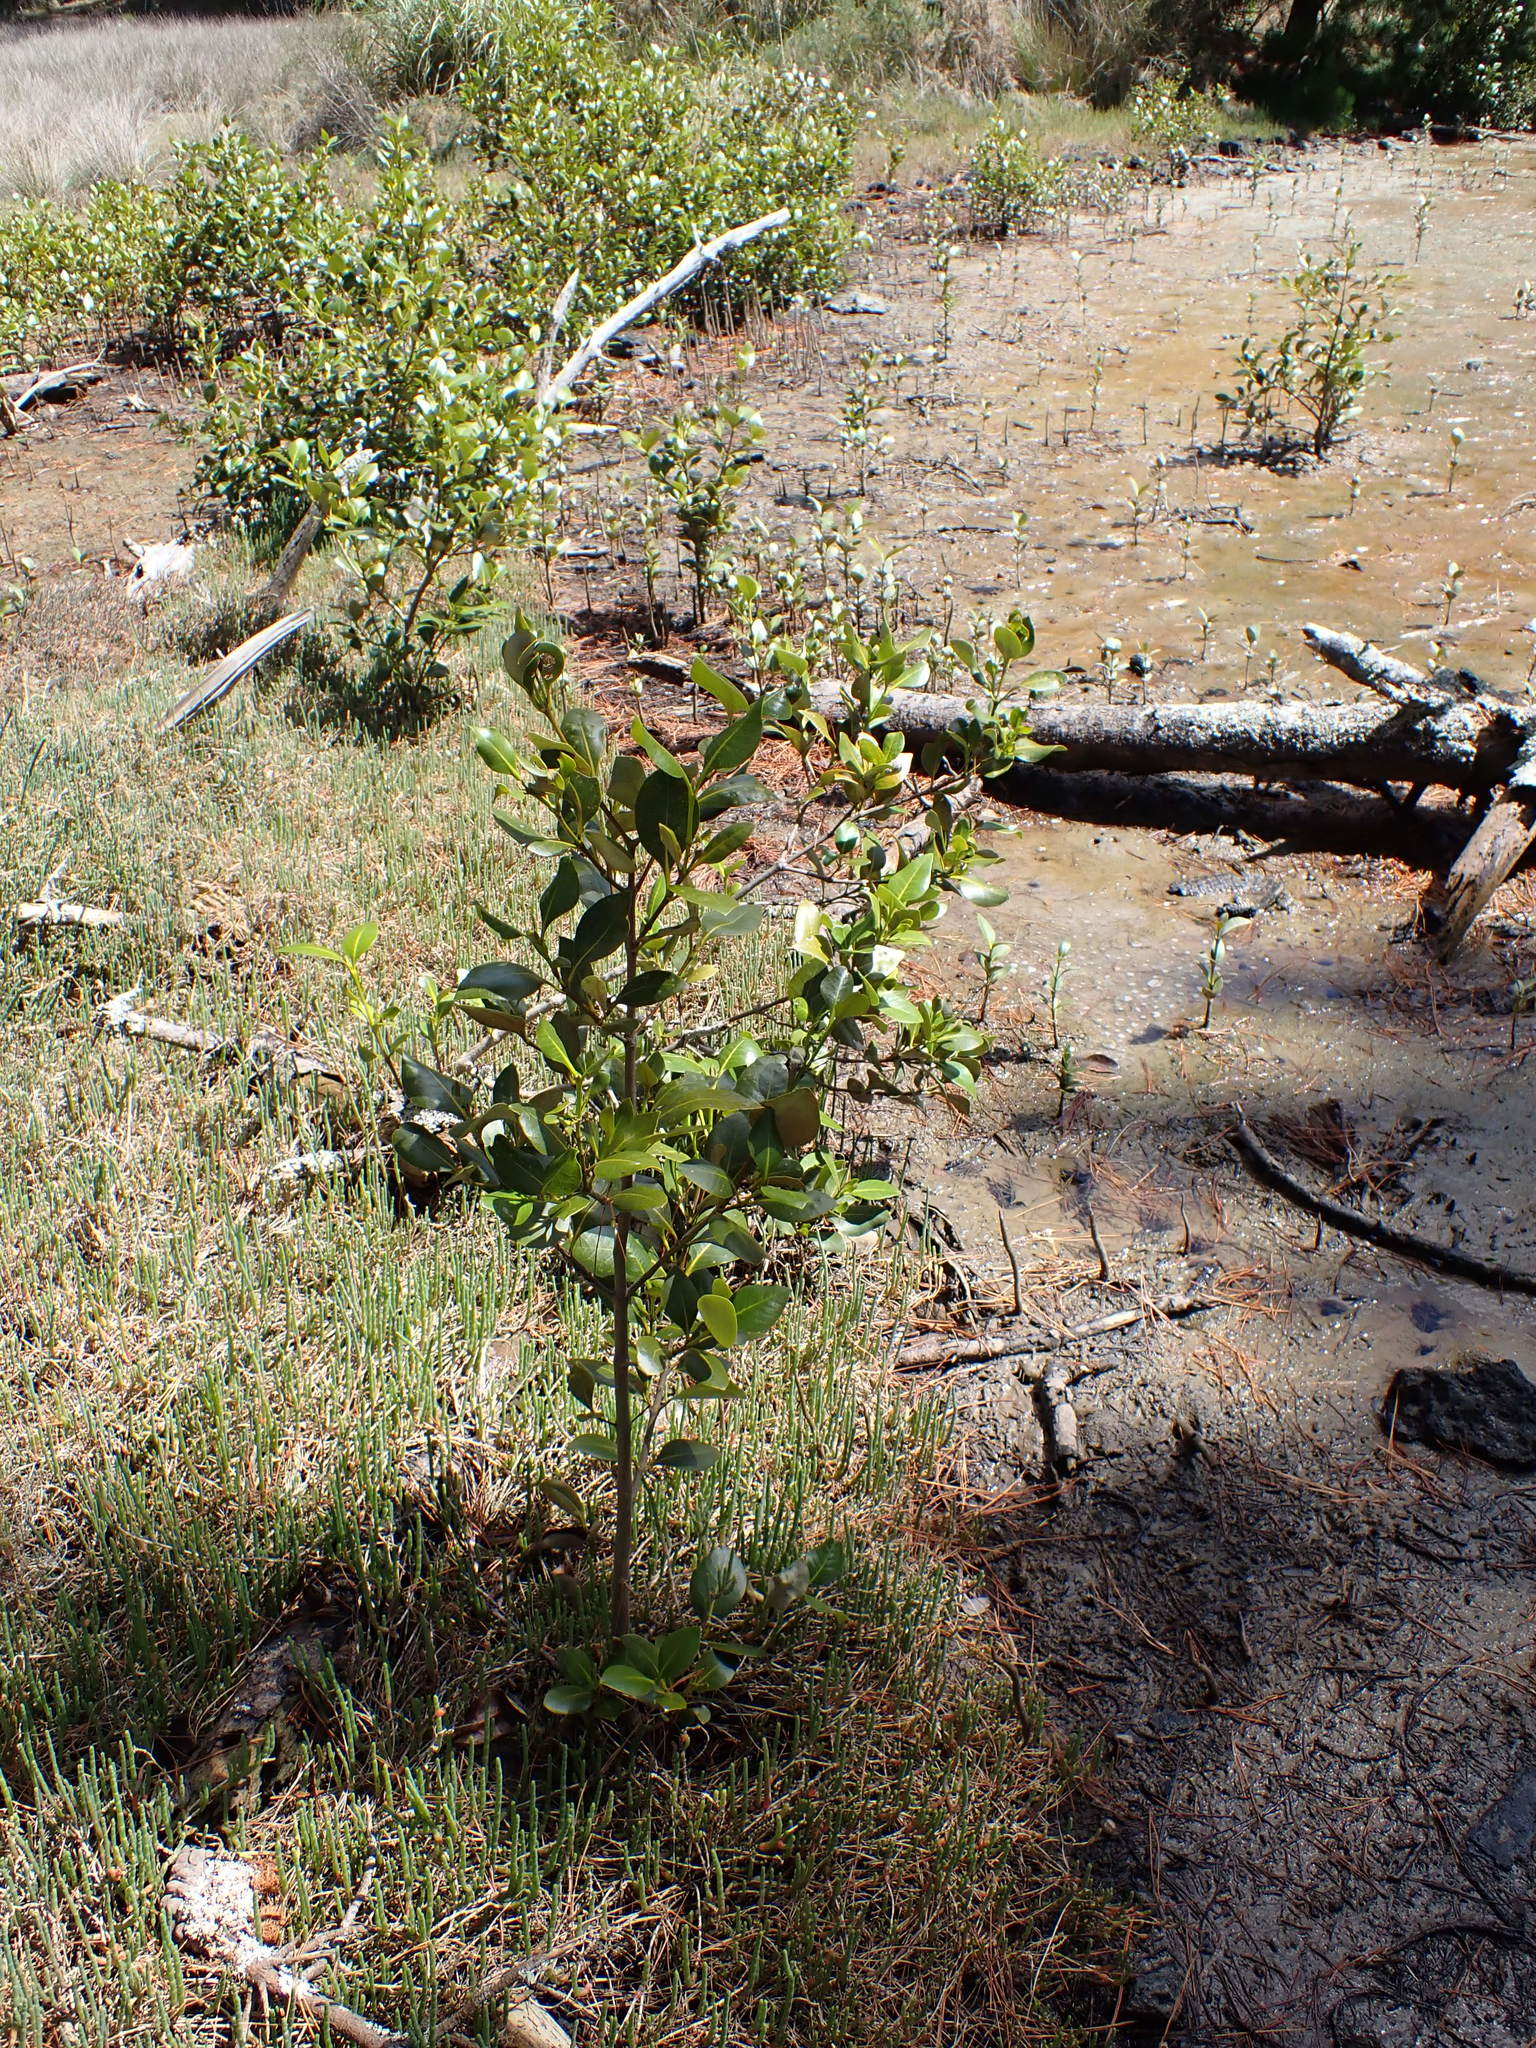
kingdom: Plantae
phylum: Tracheophyta
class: Magnoliopsida
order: Lamiales
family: Acanthaceae
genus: Avicennia
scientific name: Avicennia marina
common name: Gray mangrove
